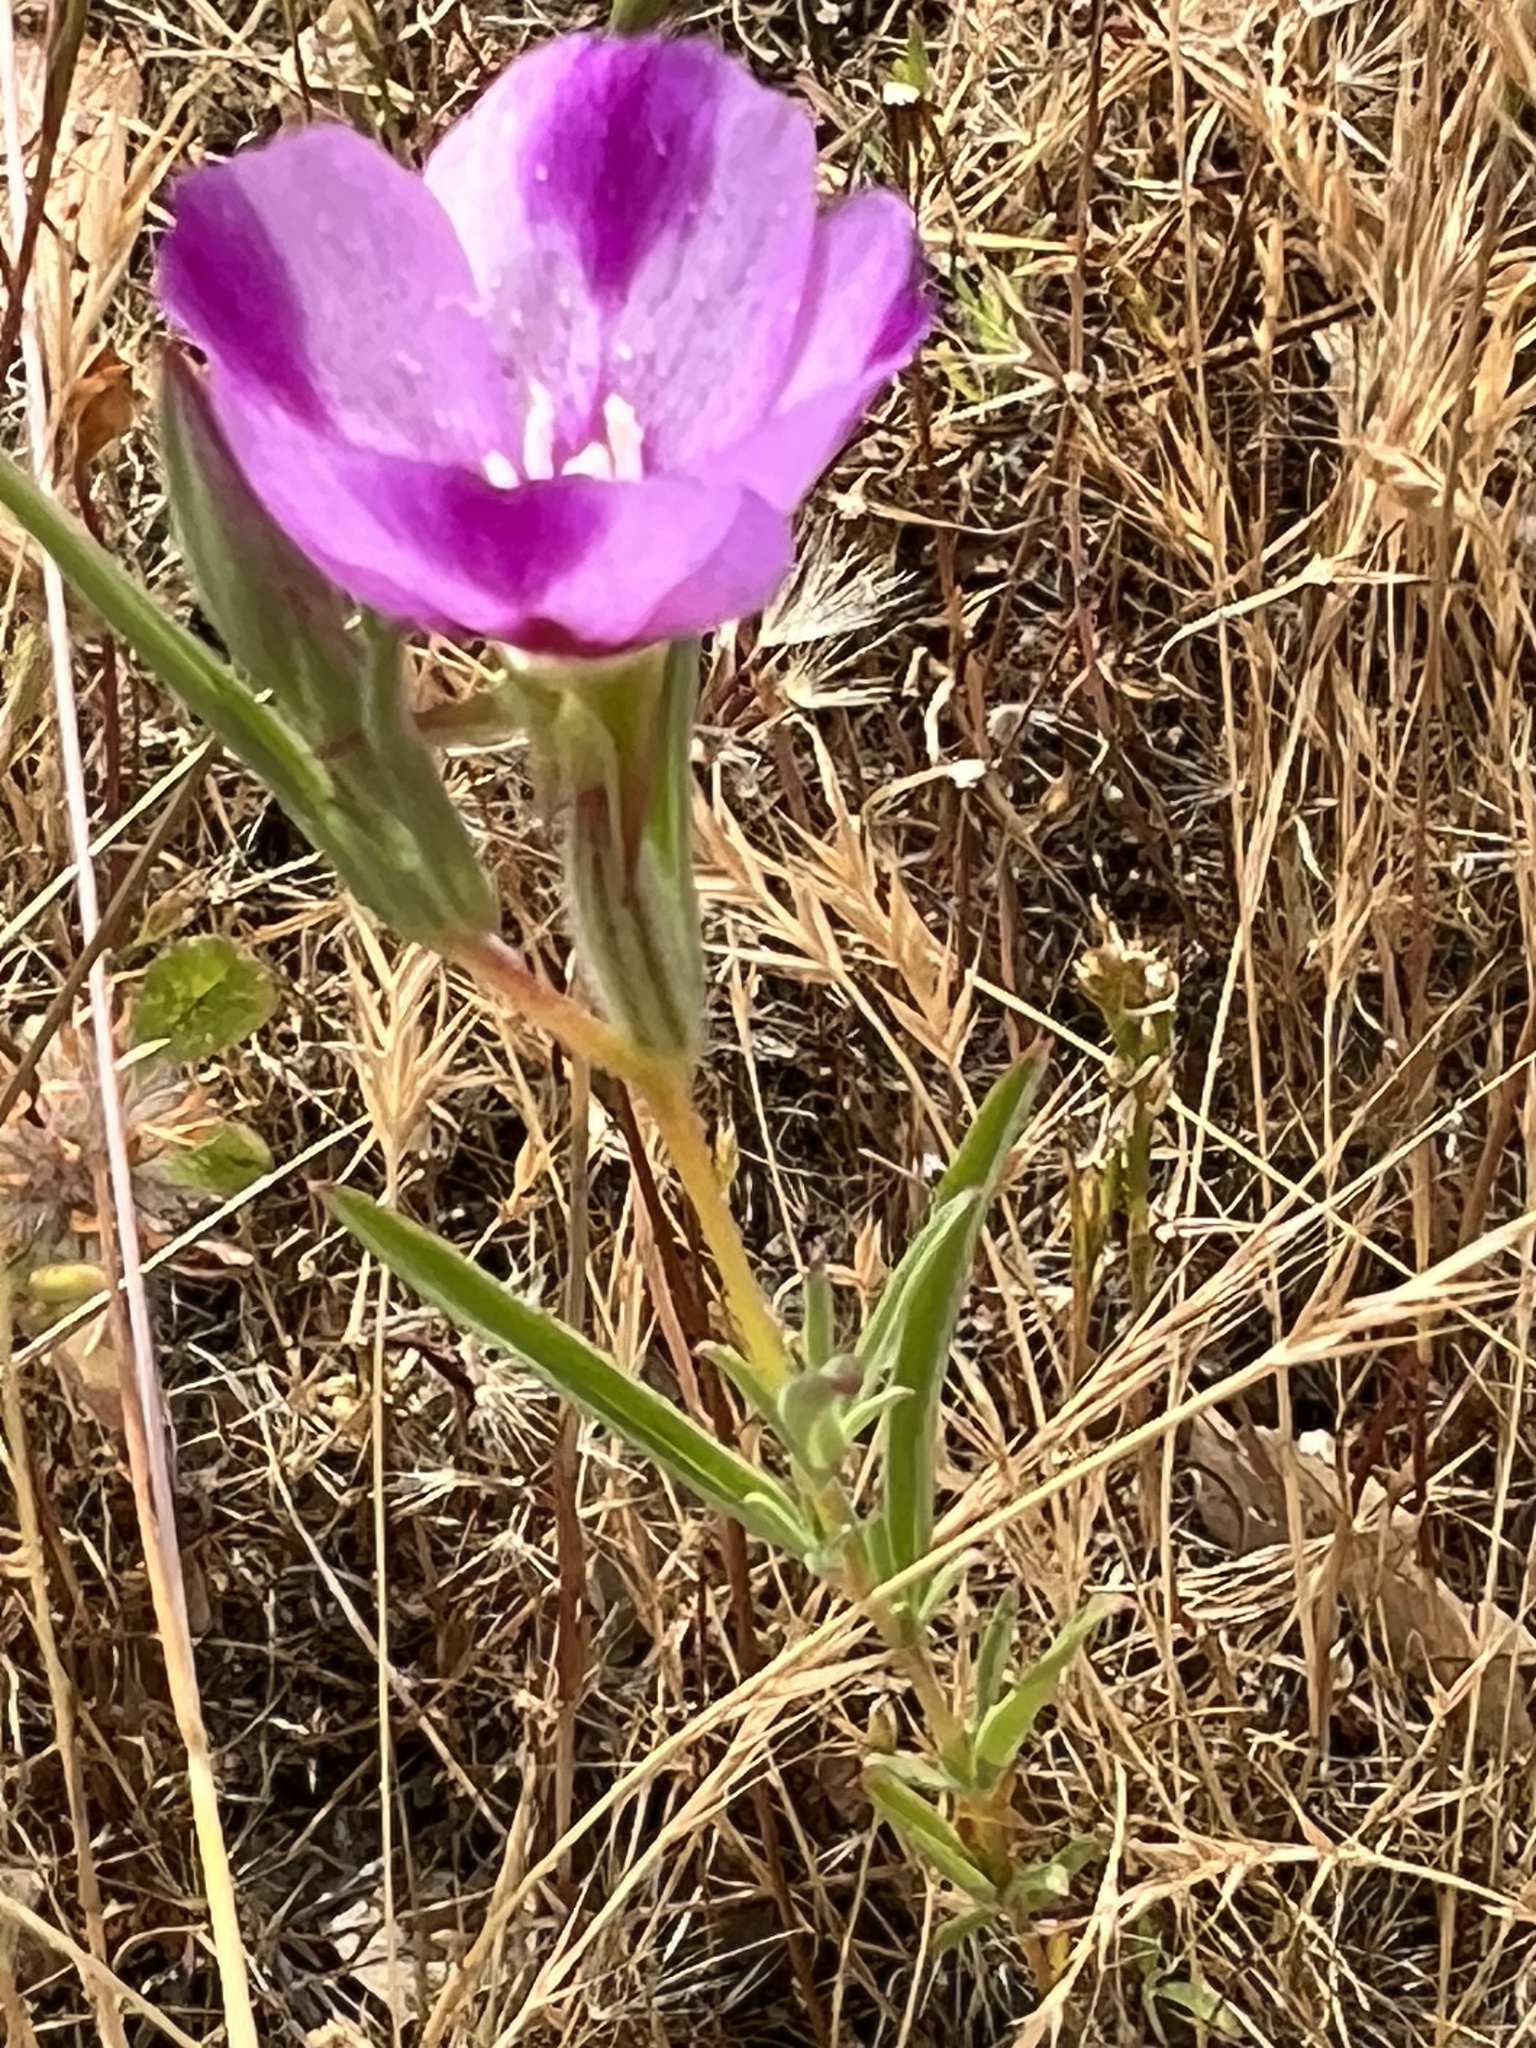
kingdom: Plantae
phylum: Tracheophyta
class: Magnoliopsida
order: Myrtales
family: Onagraceae
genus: Clarkia
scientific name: Clarkia purpurea
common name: Purple clarkia
